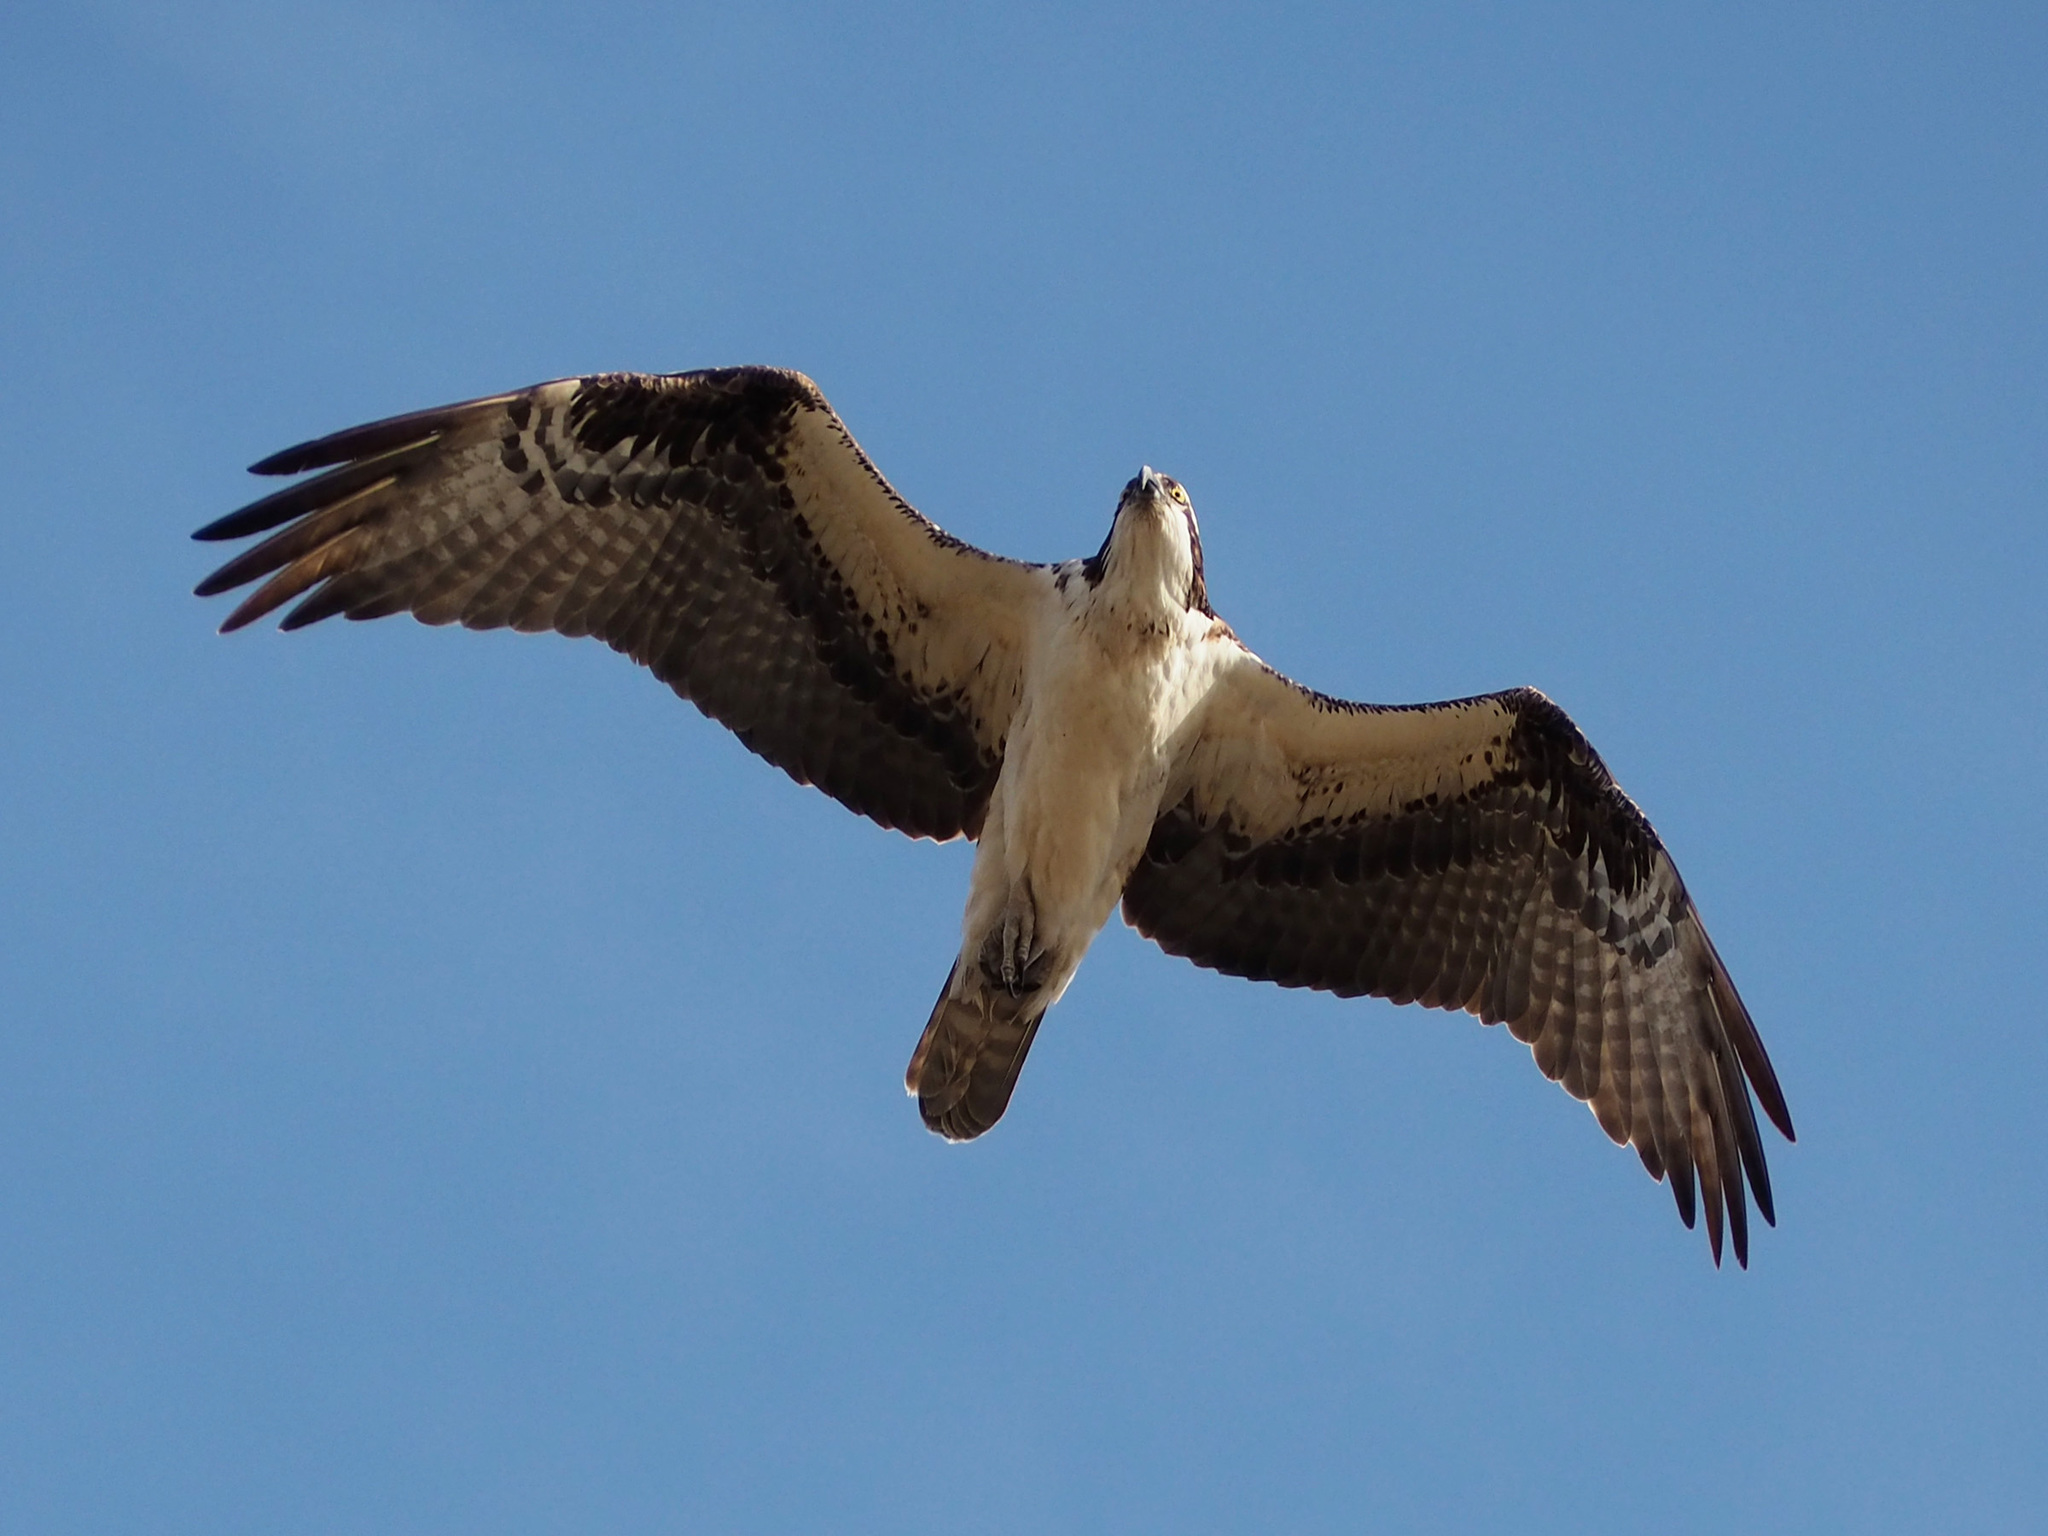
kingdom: Animalia
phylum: Chordata
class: Aves
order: Accipitriformes
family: Pandionidae
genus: Pandion
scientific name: Pandion haliaetus
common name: Osprey
